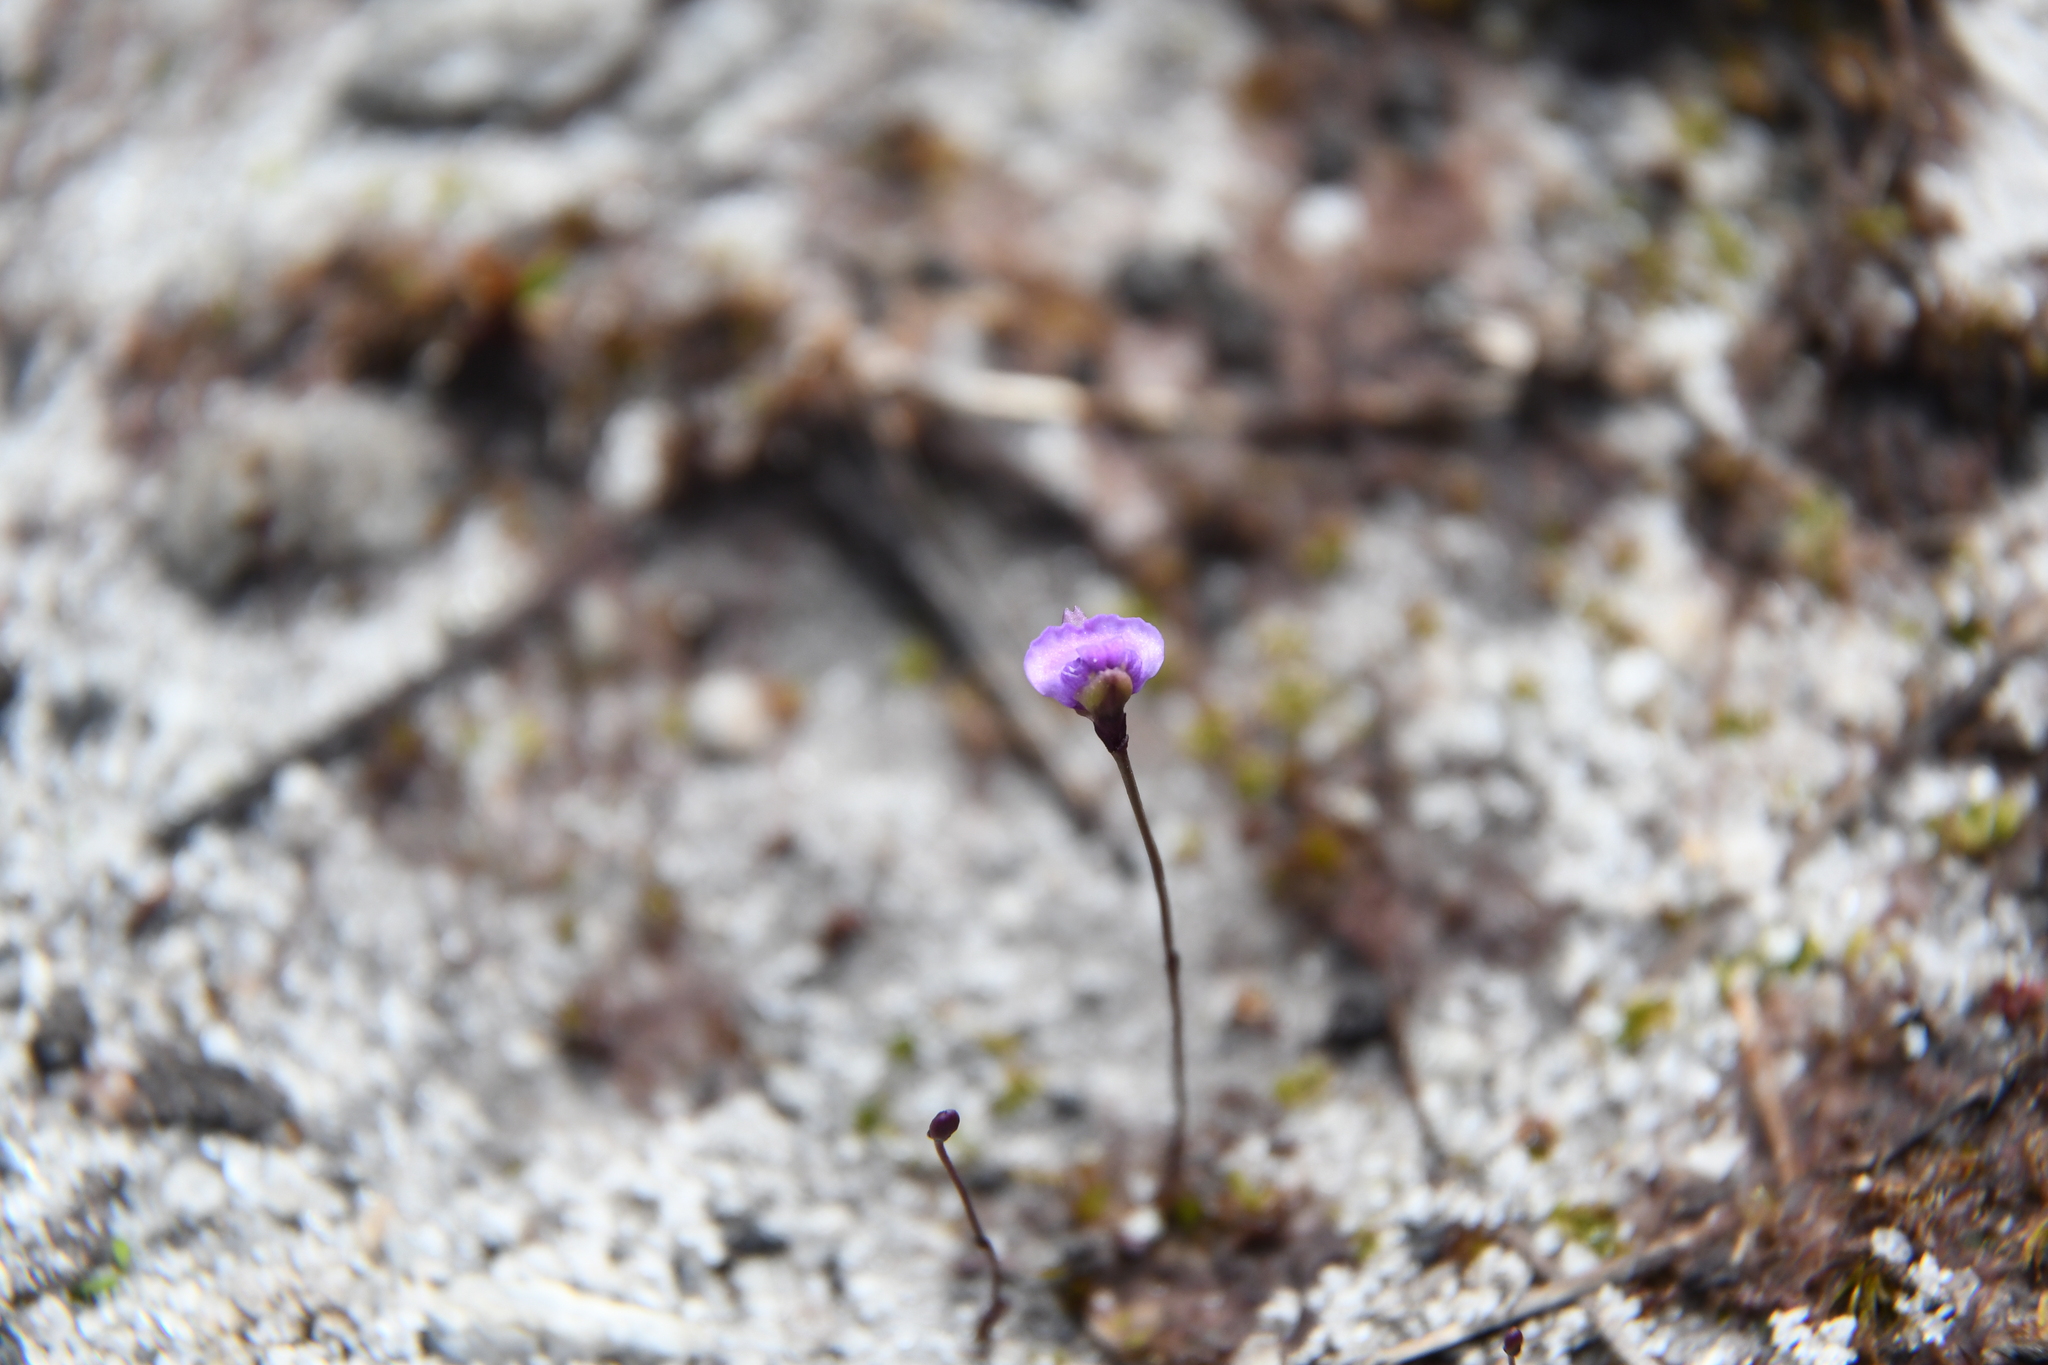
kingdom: Plantae
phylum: Tracheophyta
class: Magnoliopsida
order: Lamiales
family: Lentibulariaceae
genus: Utricularia
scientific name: Utricularia simplex
